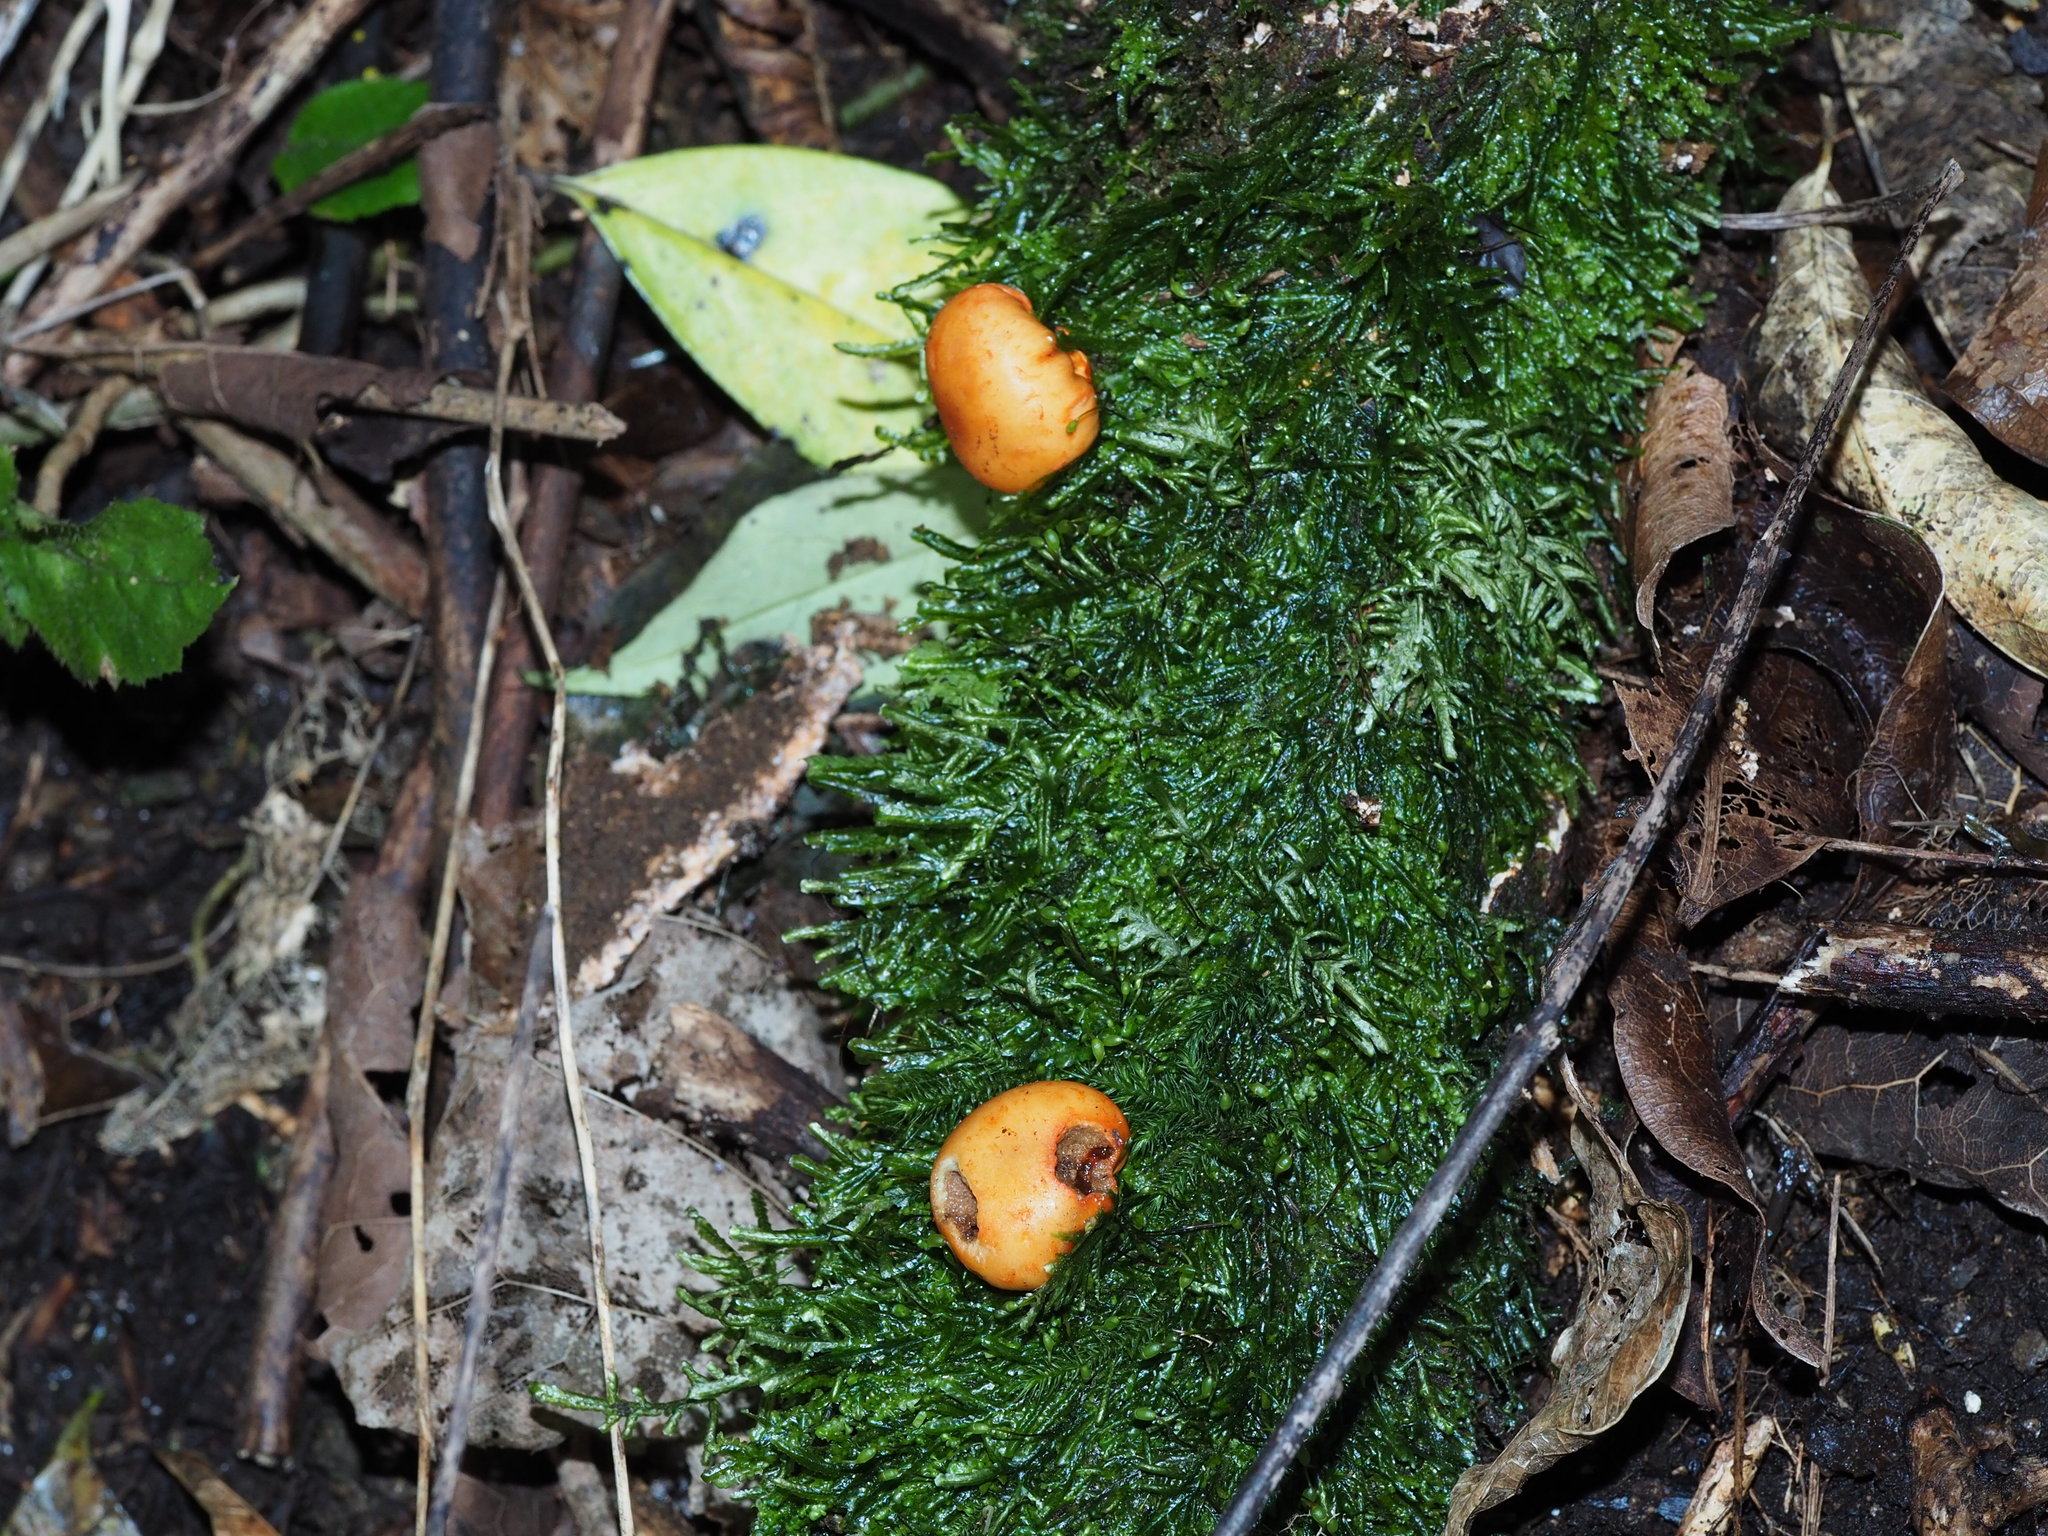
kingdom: Fungi
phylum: Basidiomycota
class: Agaricomycetes
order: Agaricales
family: Strophariaceae
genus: Leratiomyces
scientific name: Leratiomyces erythrocephalus
